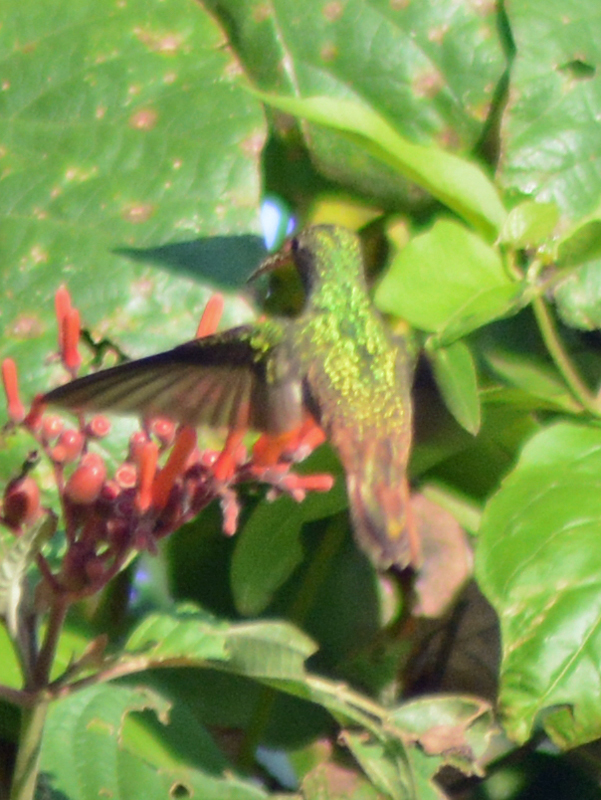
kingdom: Animalia
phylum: Chordata
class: Aves
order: Apodiformes
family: Trochilidae
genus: Amazilia
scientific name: Amazilia yucatanensis
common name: Buff-bellied hummingbird
